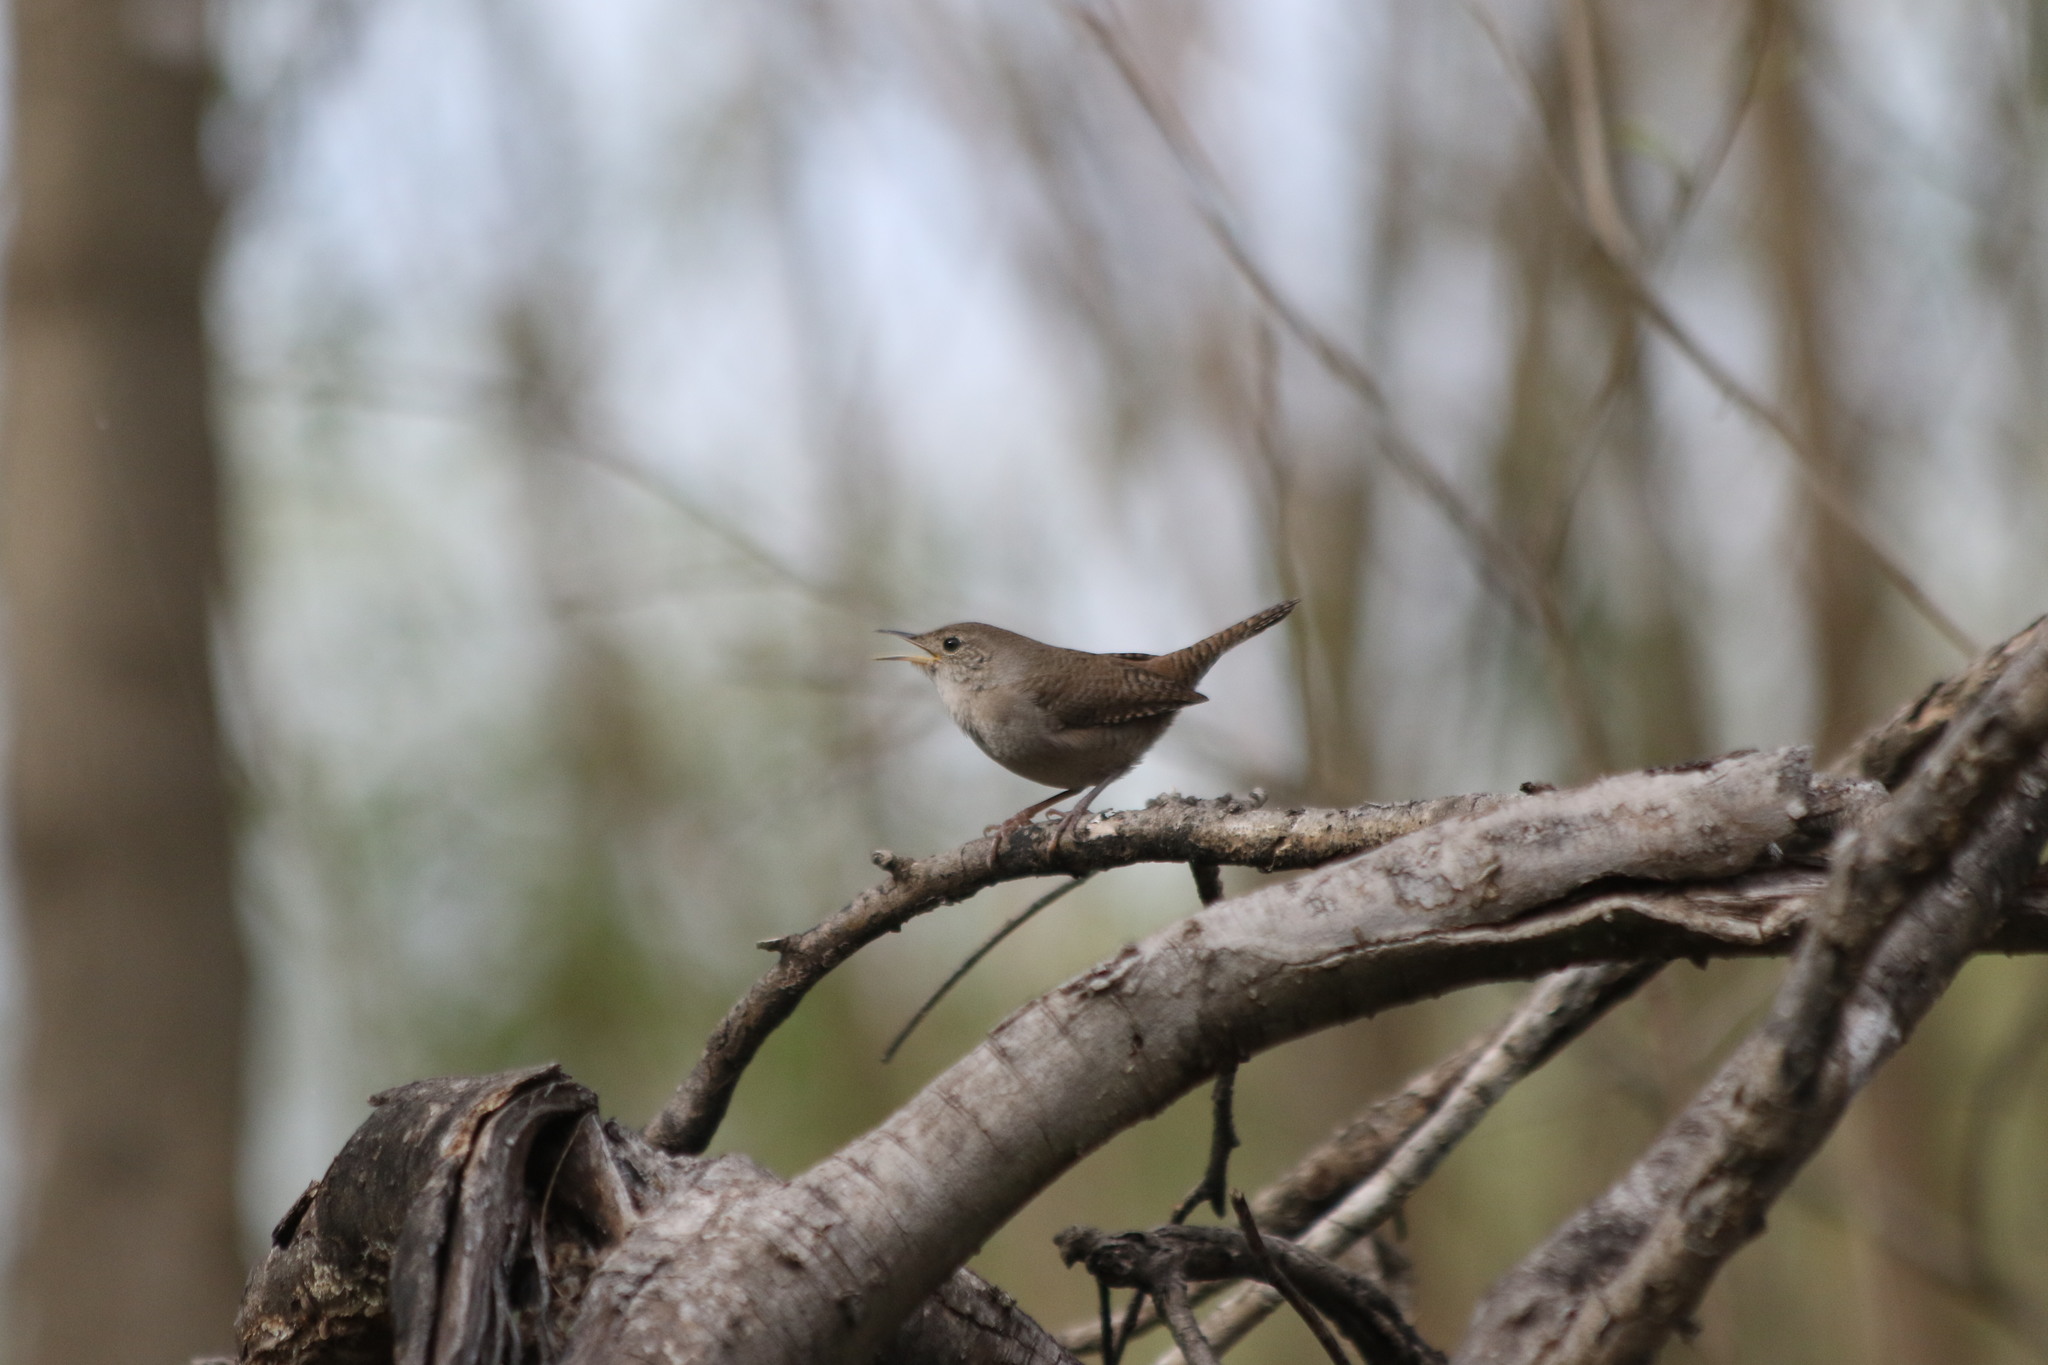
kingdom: Animalia
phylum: Chordata
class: Aves
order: Passeriformes
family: Troglodytidae
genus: Troglodytes
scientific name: Troglodytes aedon
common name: House wren
